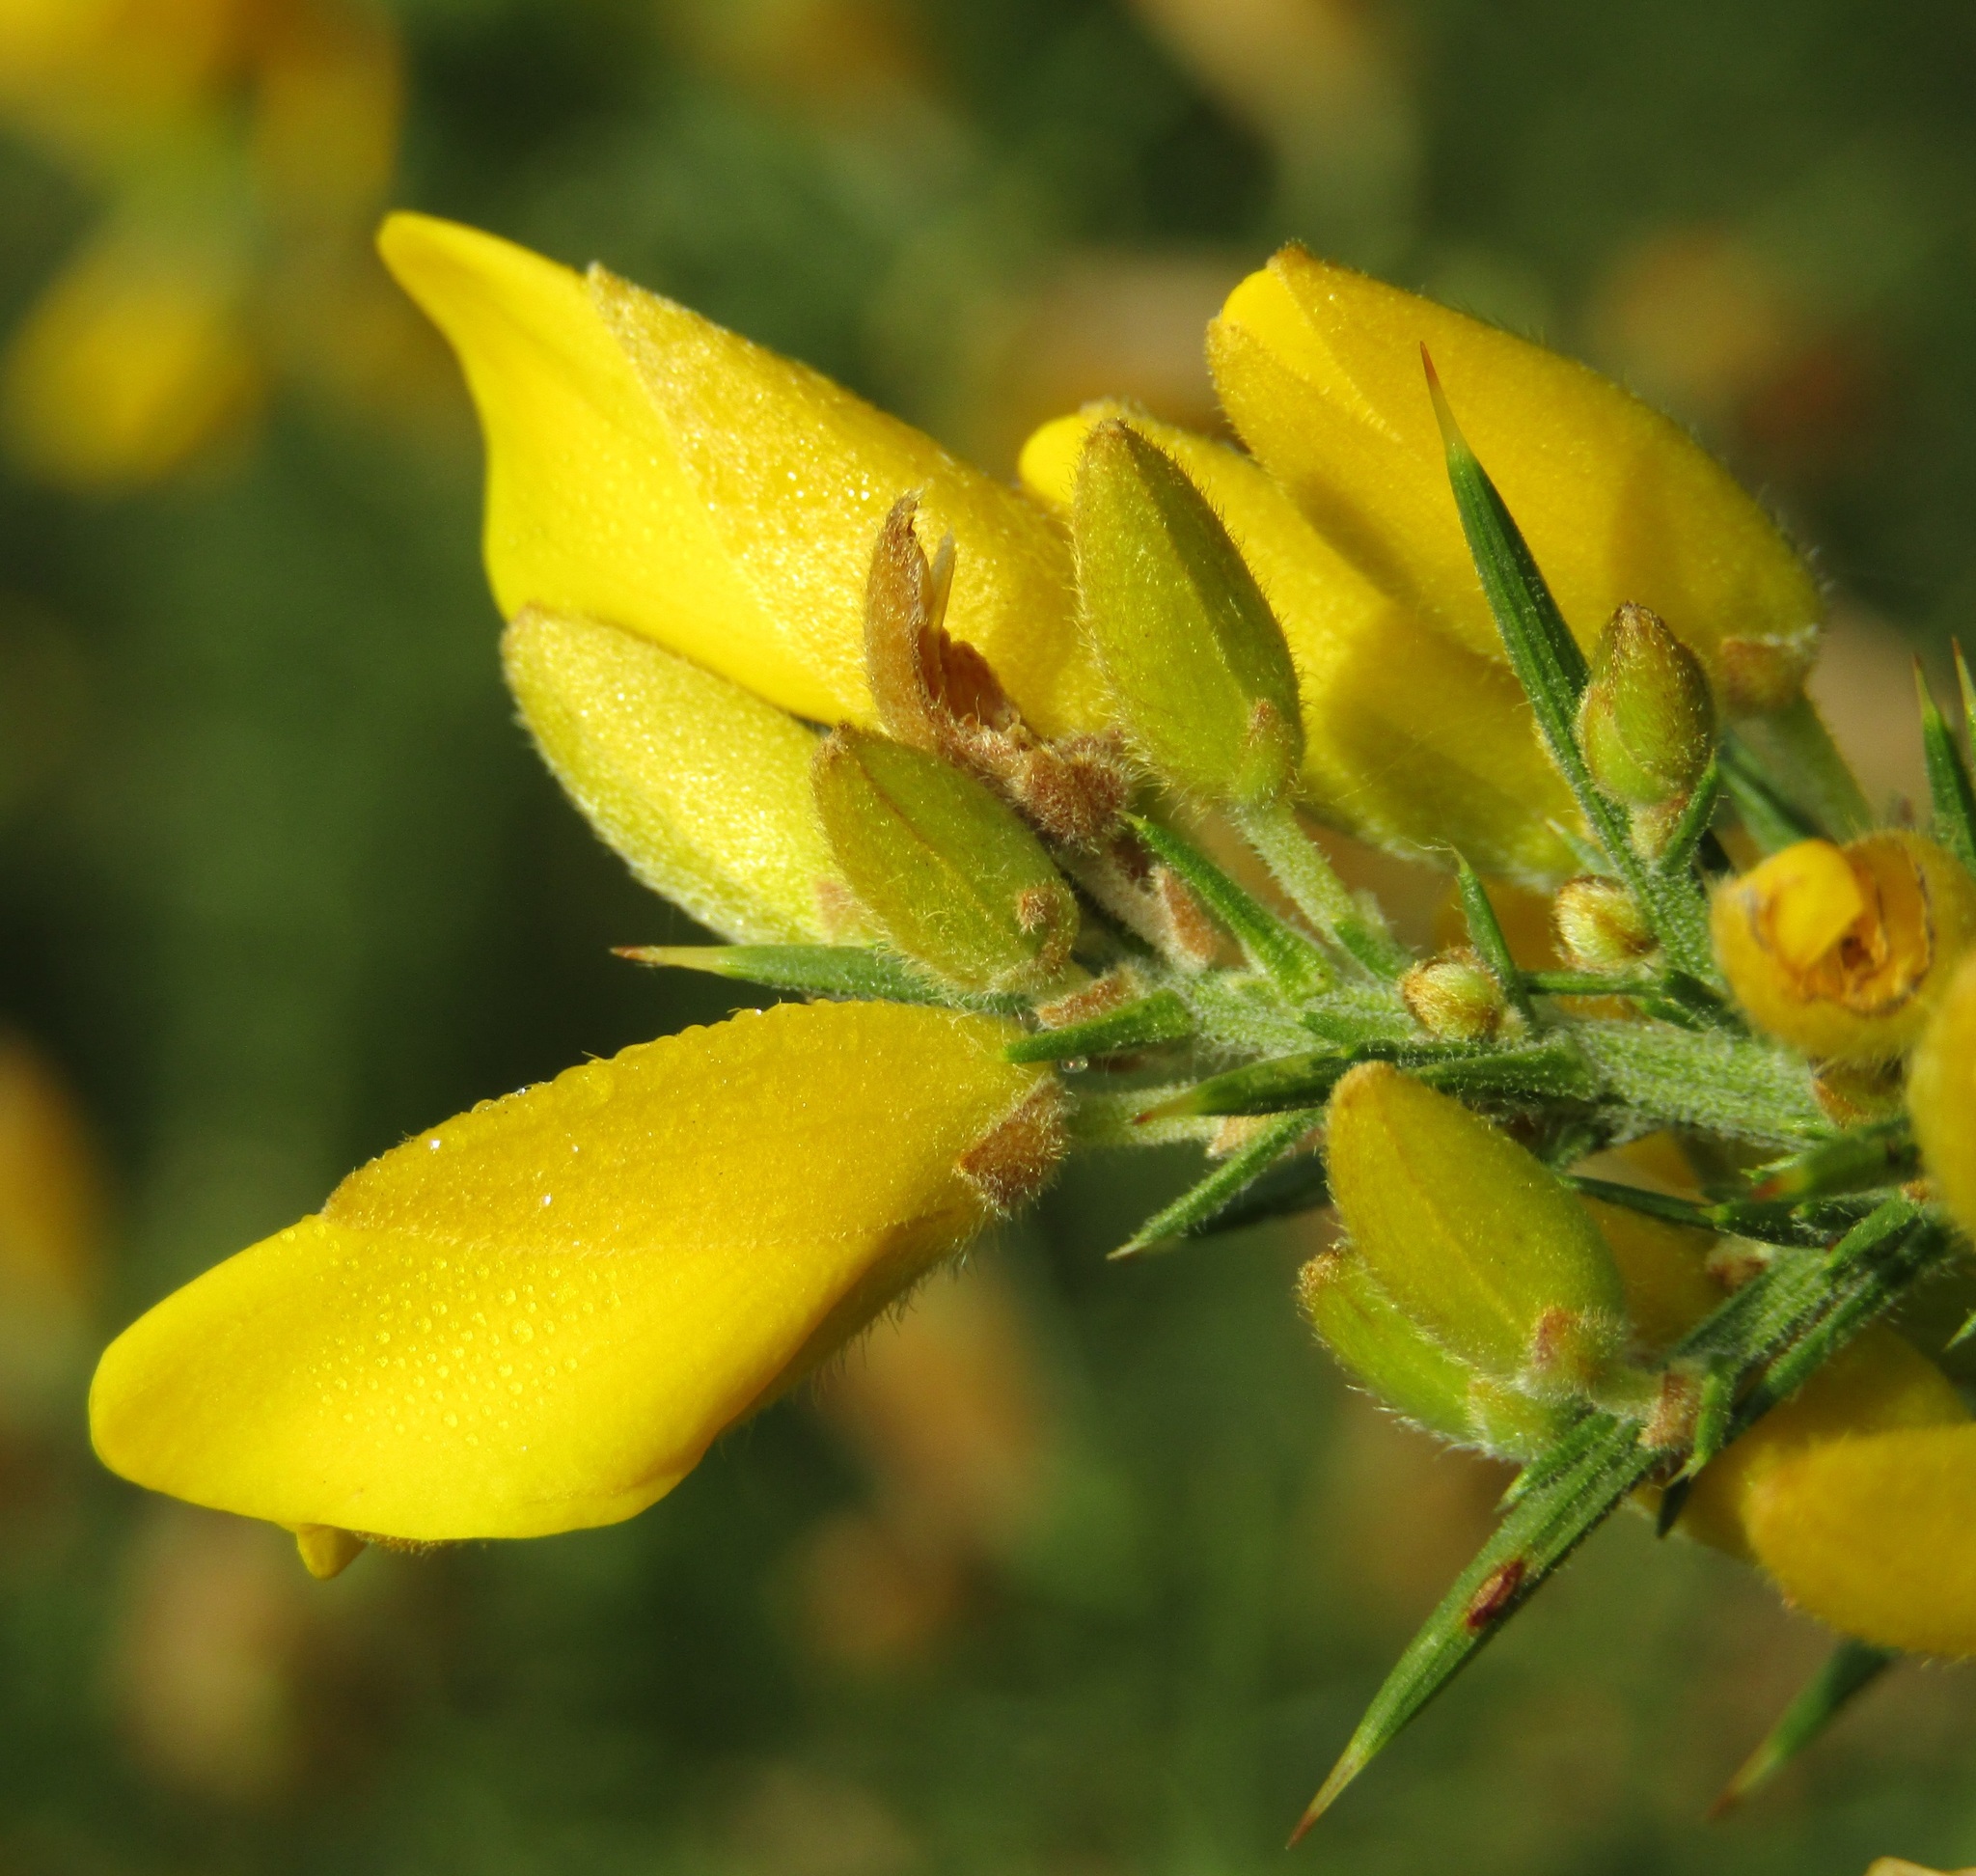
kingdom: Plantae
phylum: Tracheophyta
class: Magnoliopsida
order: Fabales
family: Fabaceae
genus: Ulex
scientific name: Ulex europaeus
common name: Common gorse
